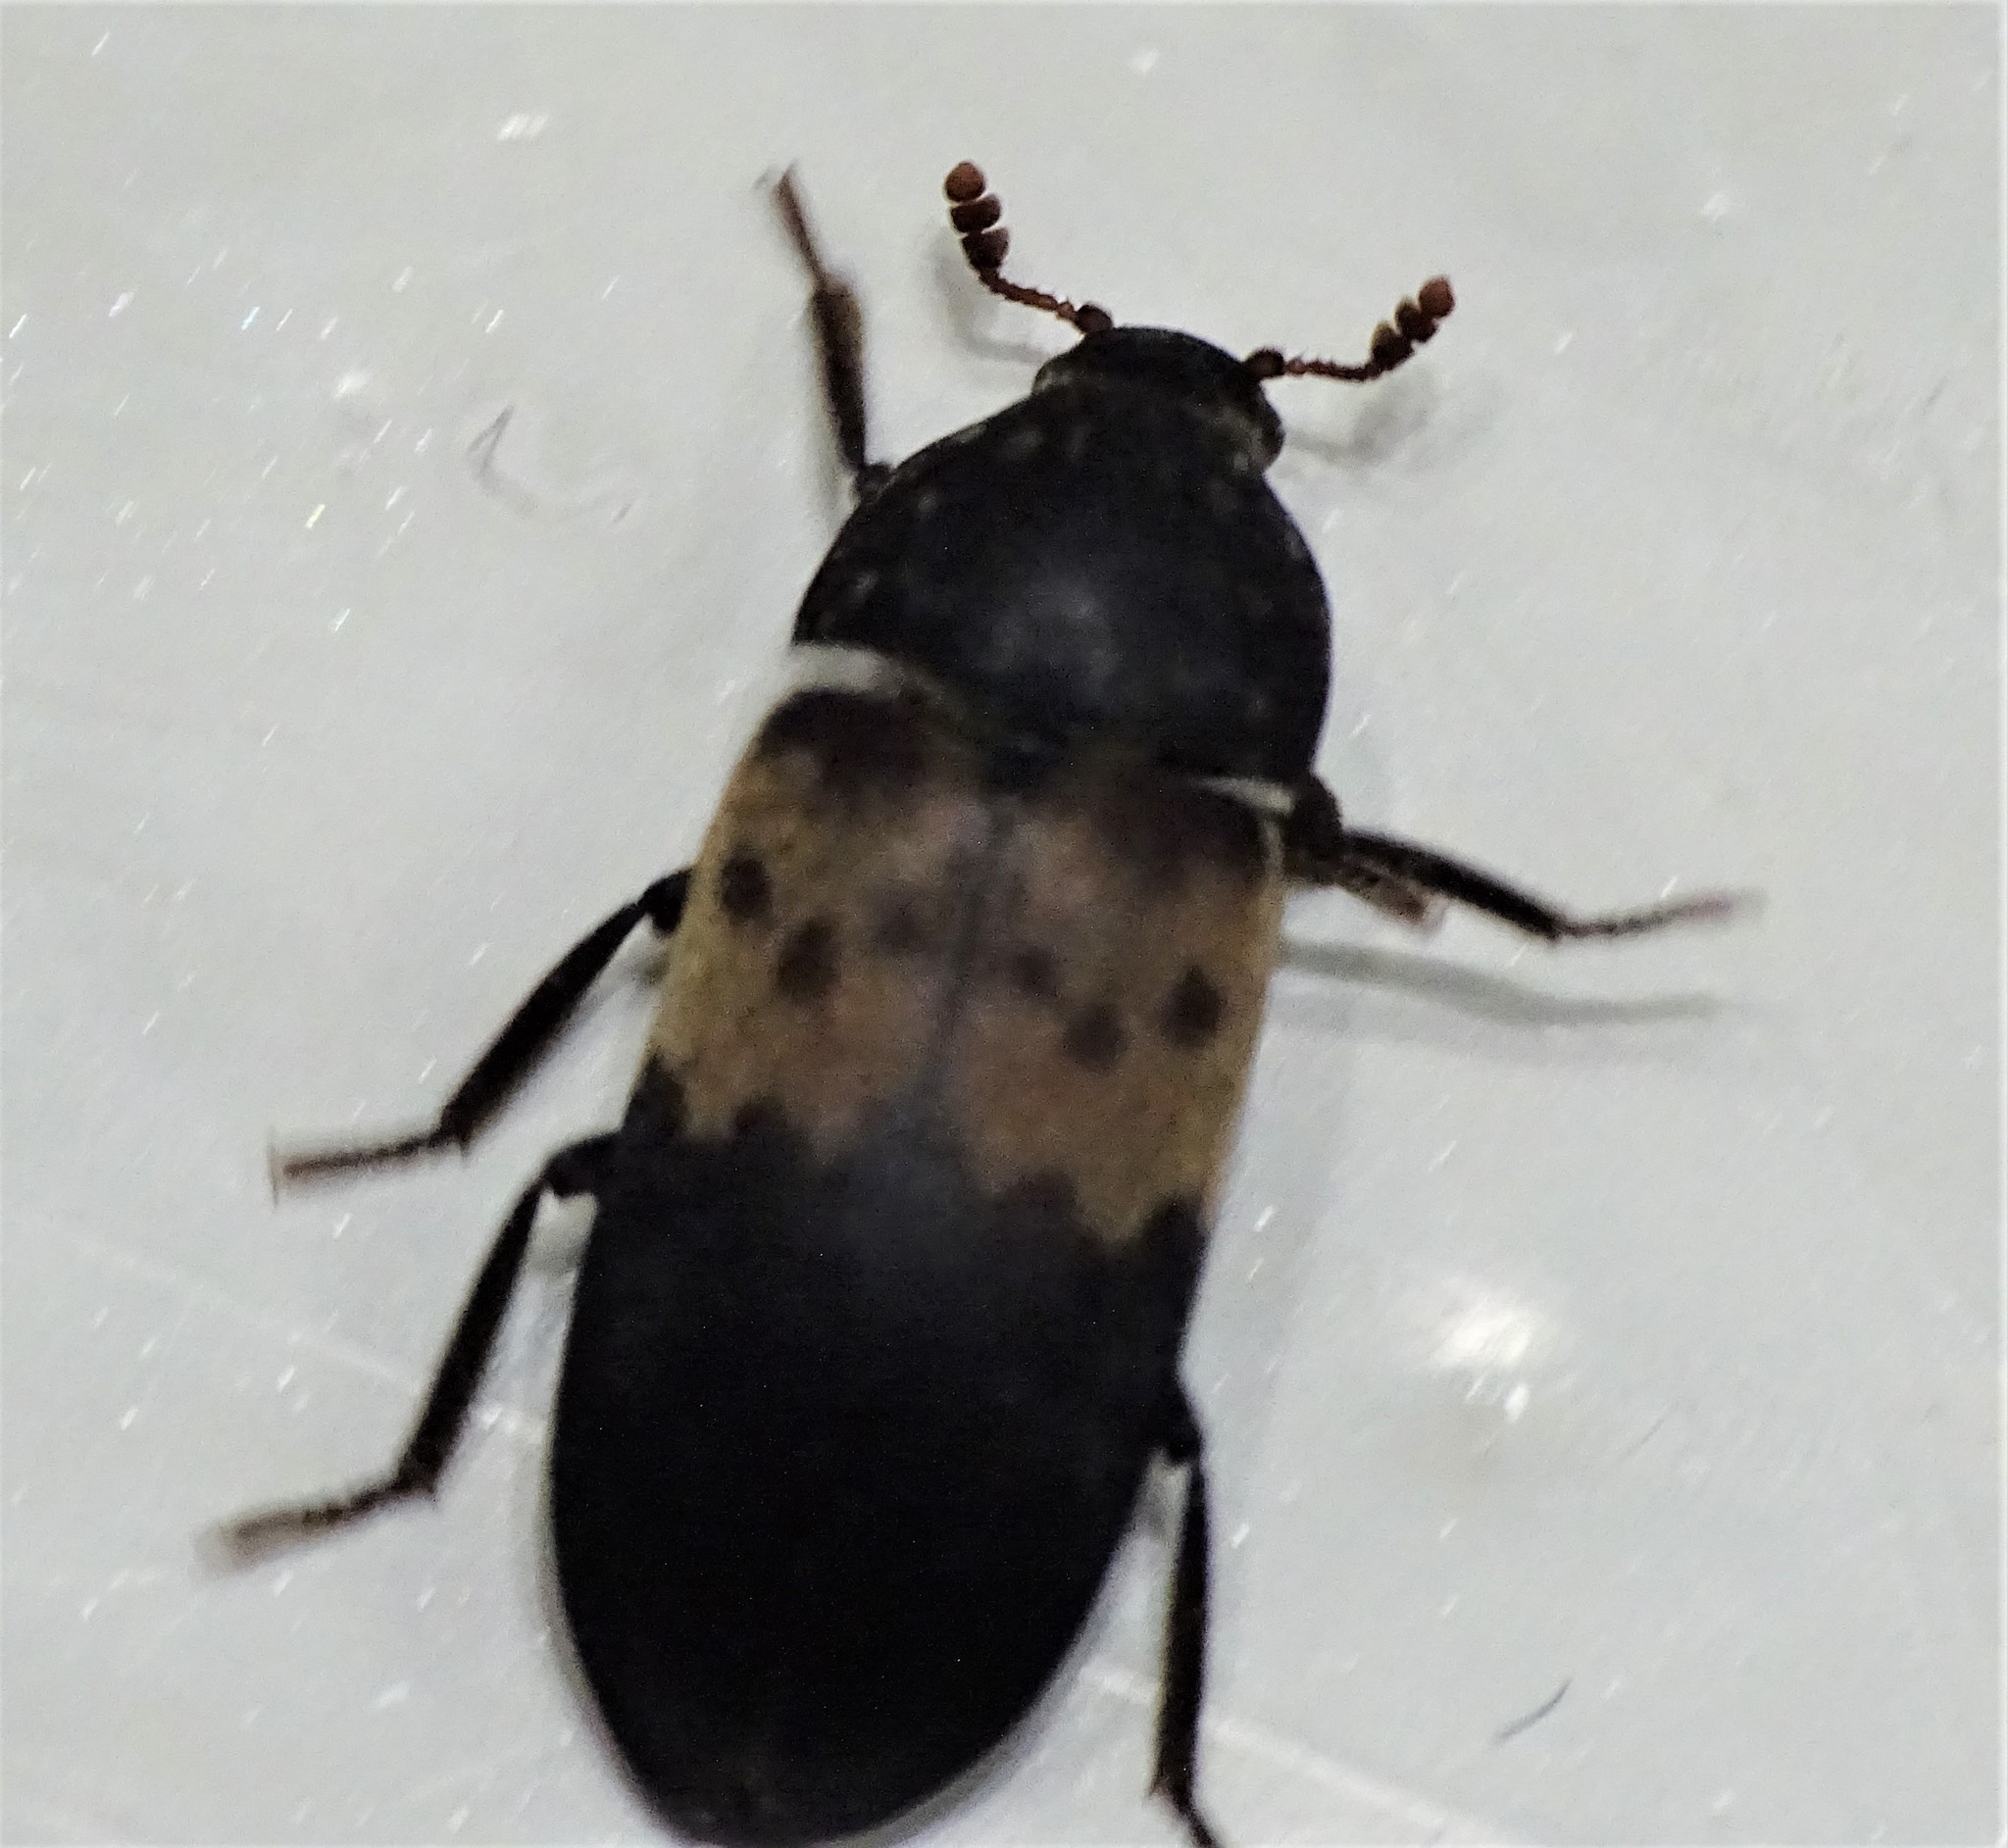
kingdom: Animalia
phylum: Arthropoda
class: Insecta
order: Coleoptera
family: Dermestidae
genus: Dermestes
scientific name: Dermestes lardarius
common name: Larder beetle
